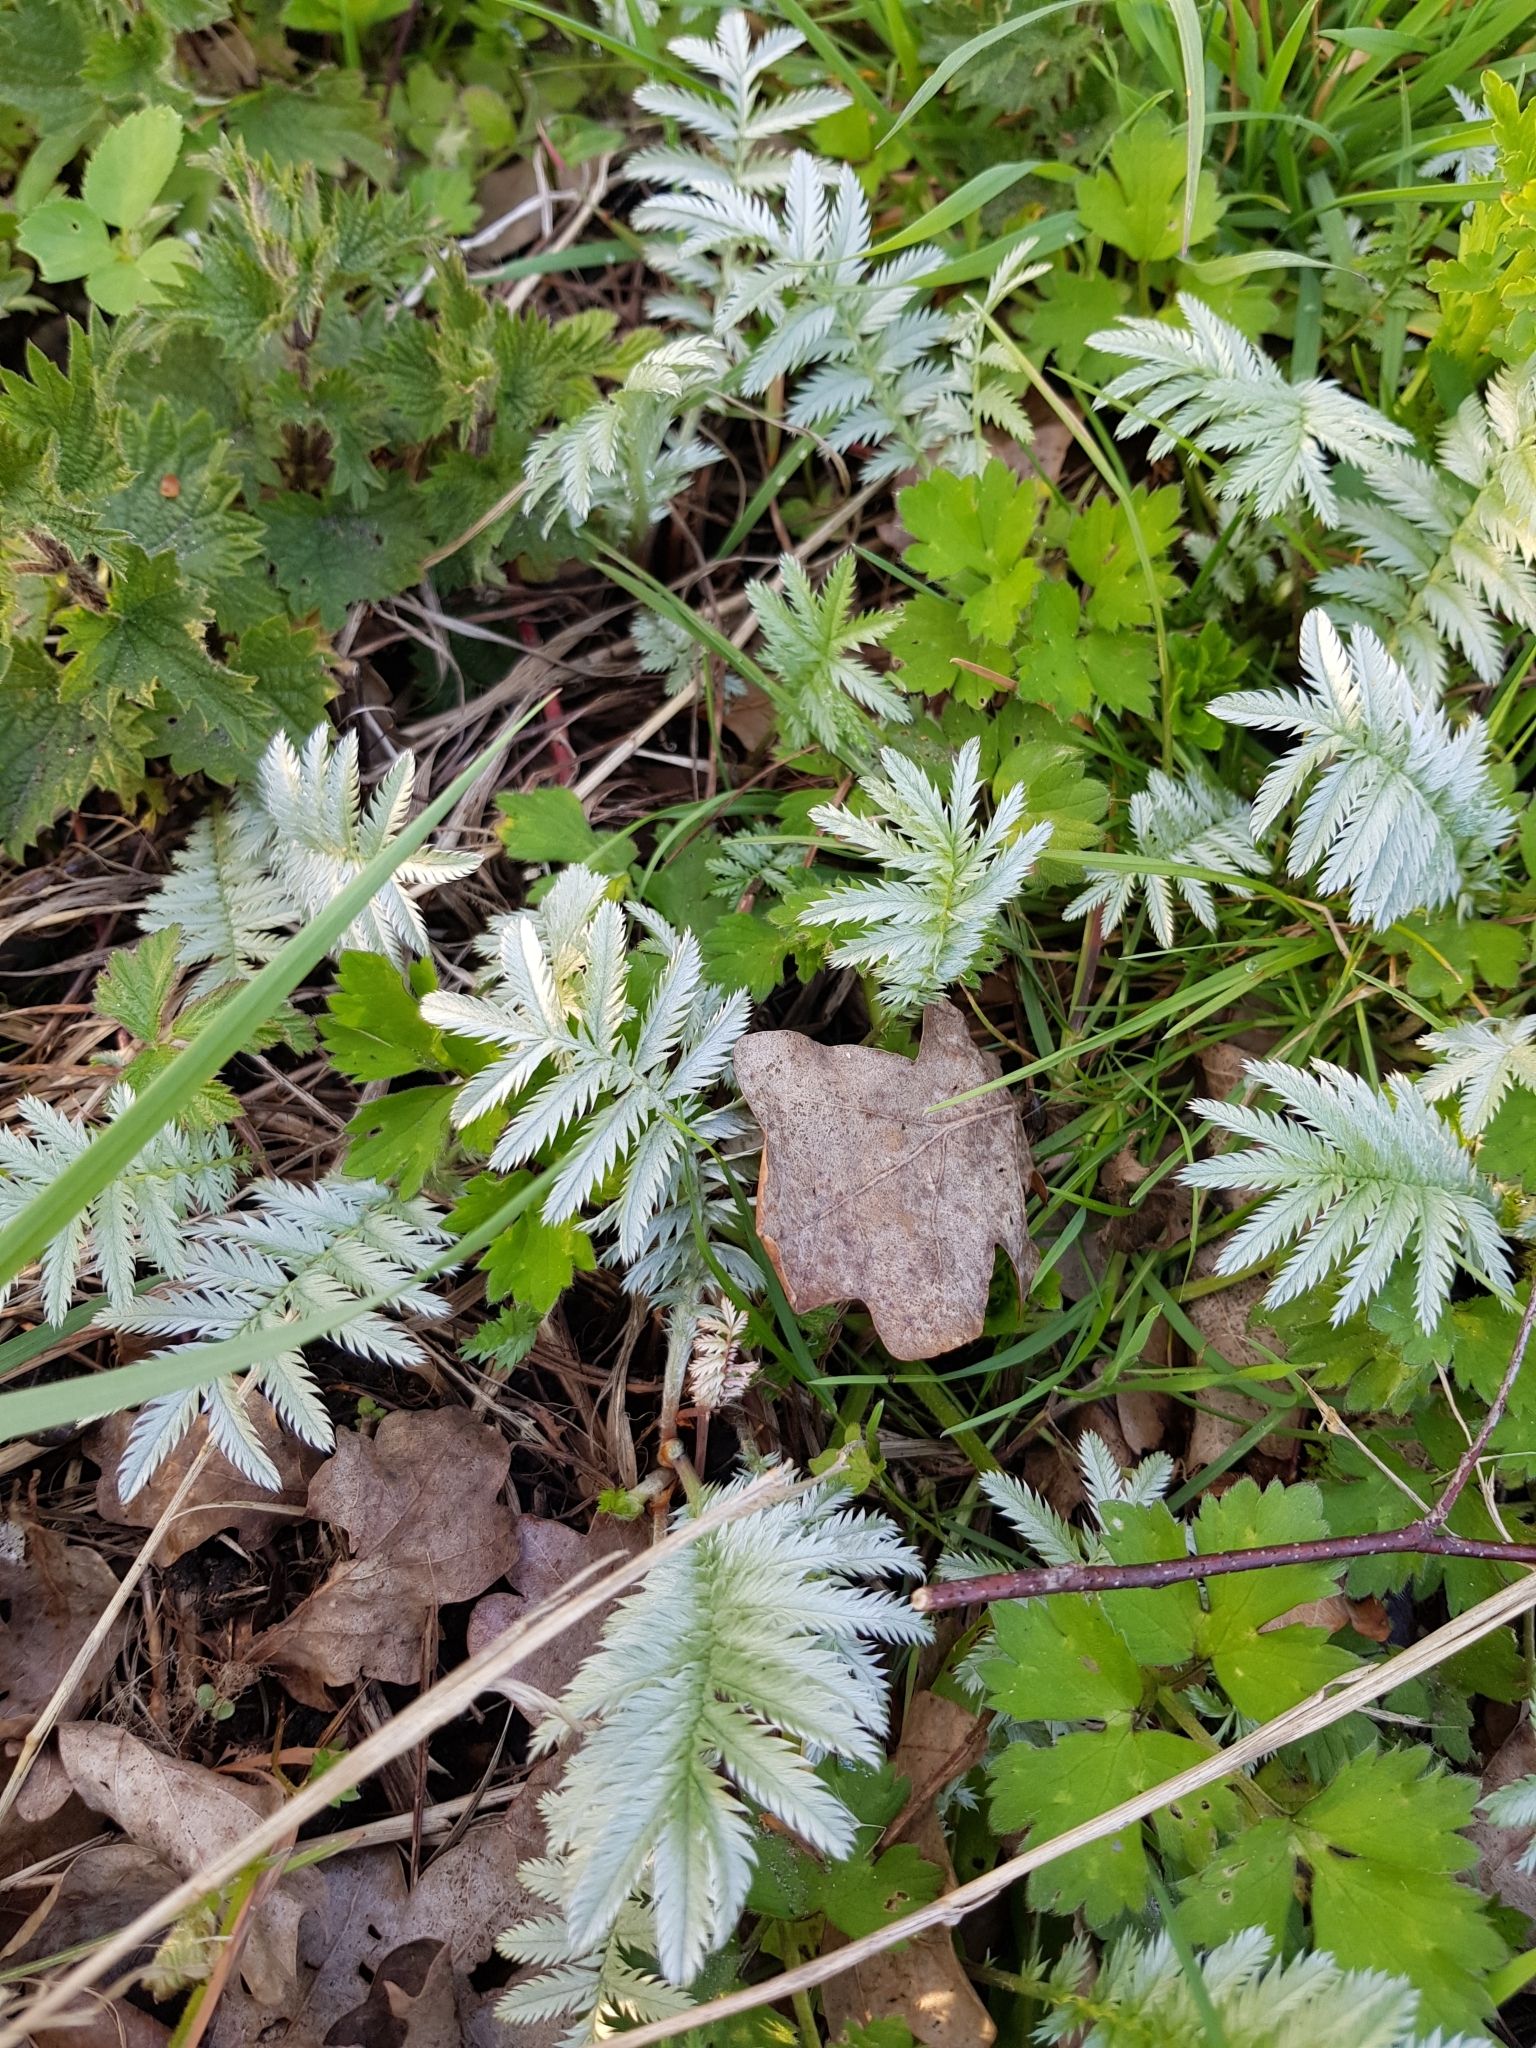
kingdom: Plantae
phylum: Tracheophyta
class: Magnoliopsida
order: Rosales
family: Rosaceae
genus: Argentina
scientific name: Argentina anserina
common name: Common silverweed
